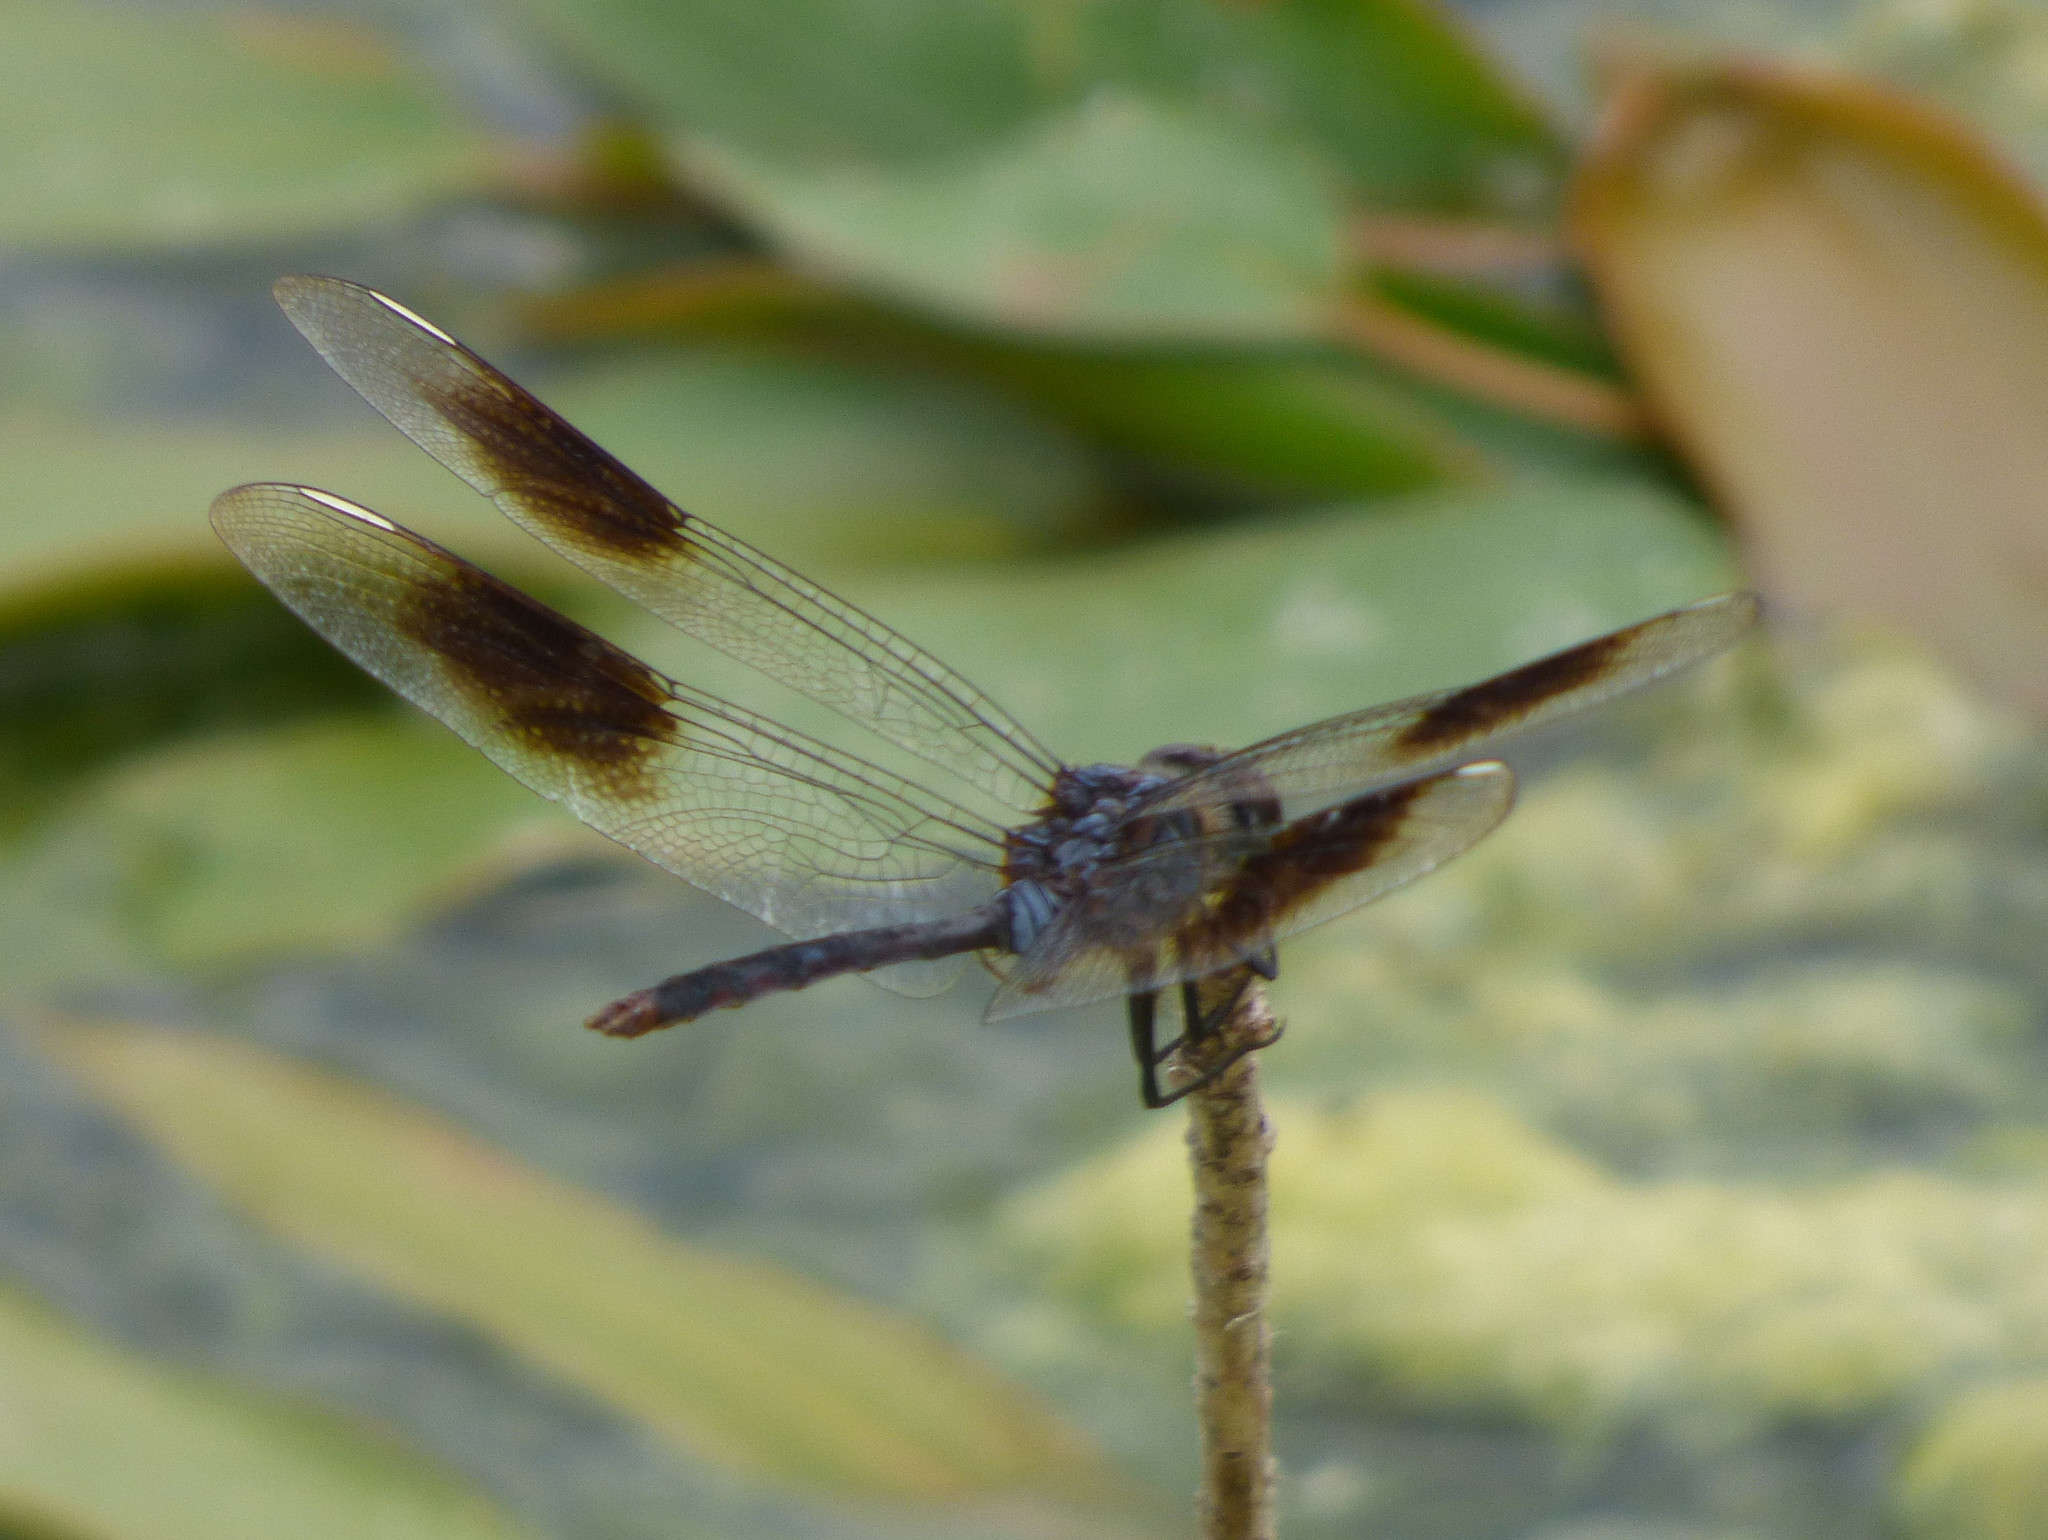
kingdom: Animalia
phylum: Arthropoda
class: Insecta
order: Odonata
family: Libellulidae
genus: Brachymesia
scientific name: Brachymesia gravida
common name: Four-spotted pennant
